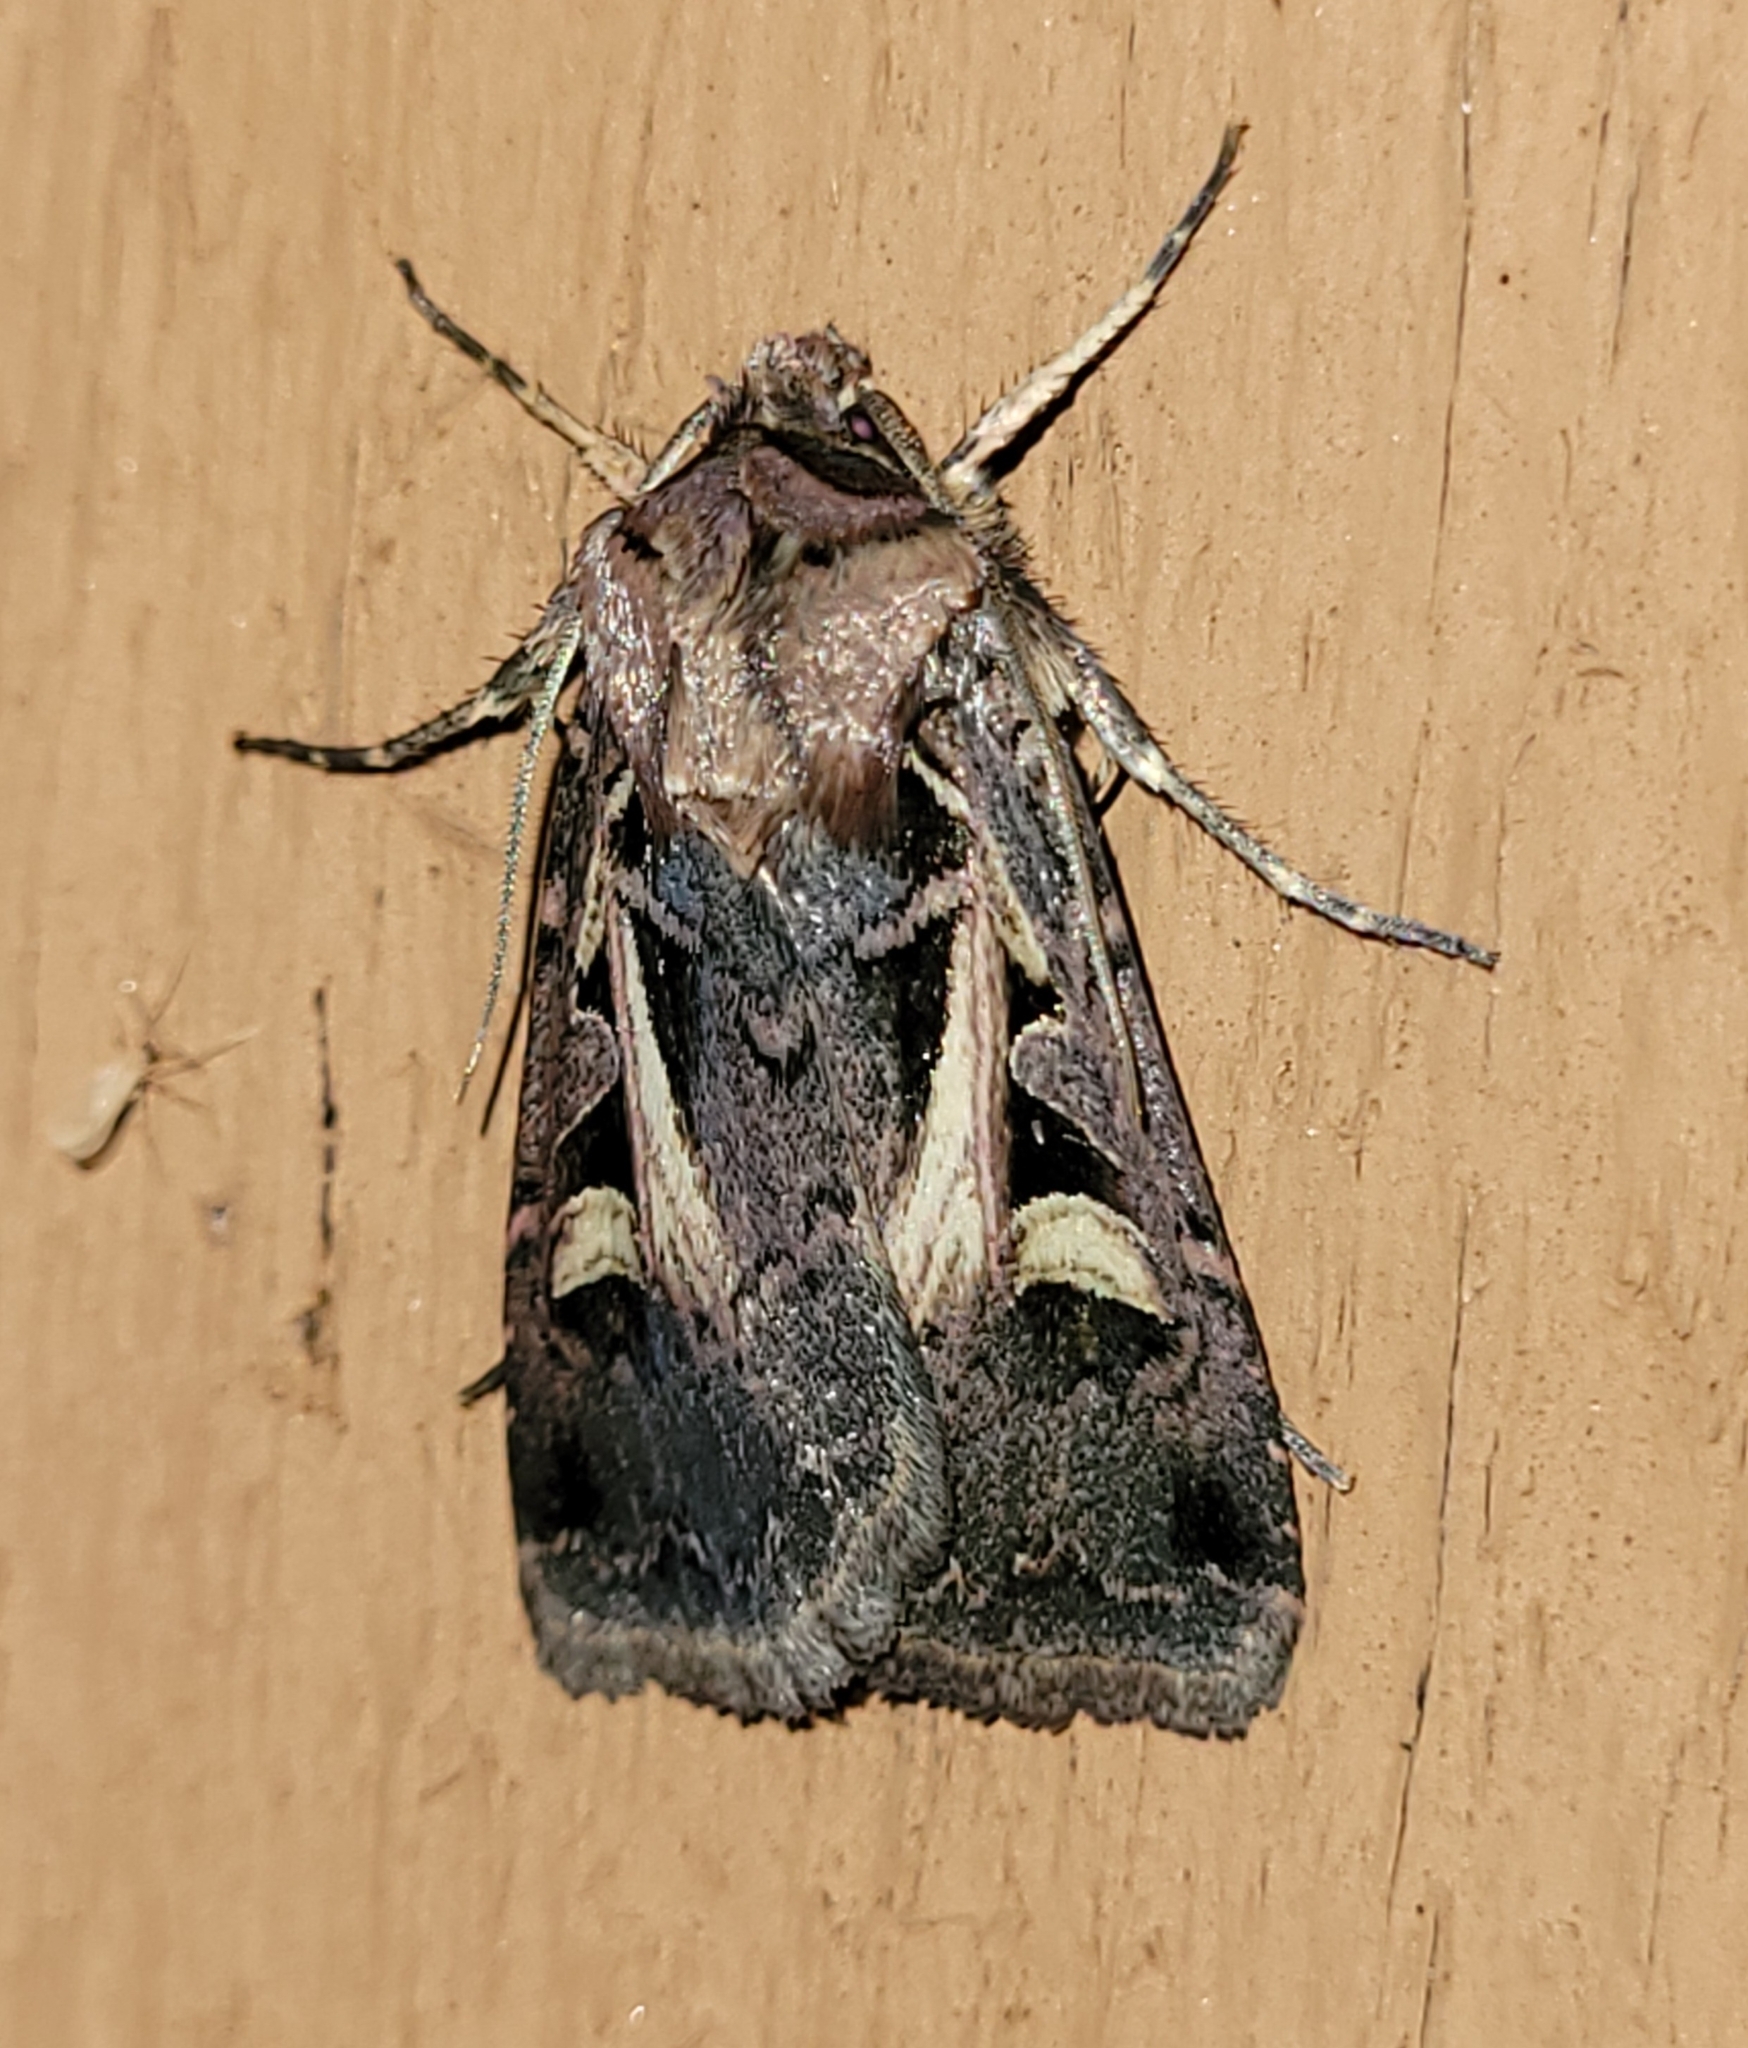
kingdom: Animalia
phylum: Arthropoda
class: Insecta
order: Lepidoptera
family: Noctuidae
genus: Feltia
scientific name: Feltia herilis
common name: Master's dart
